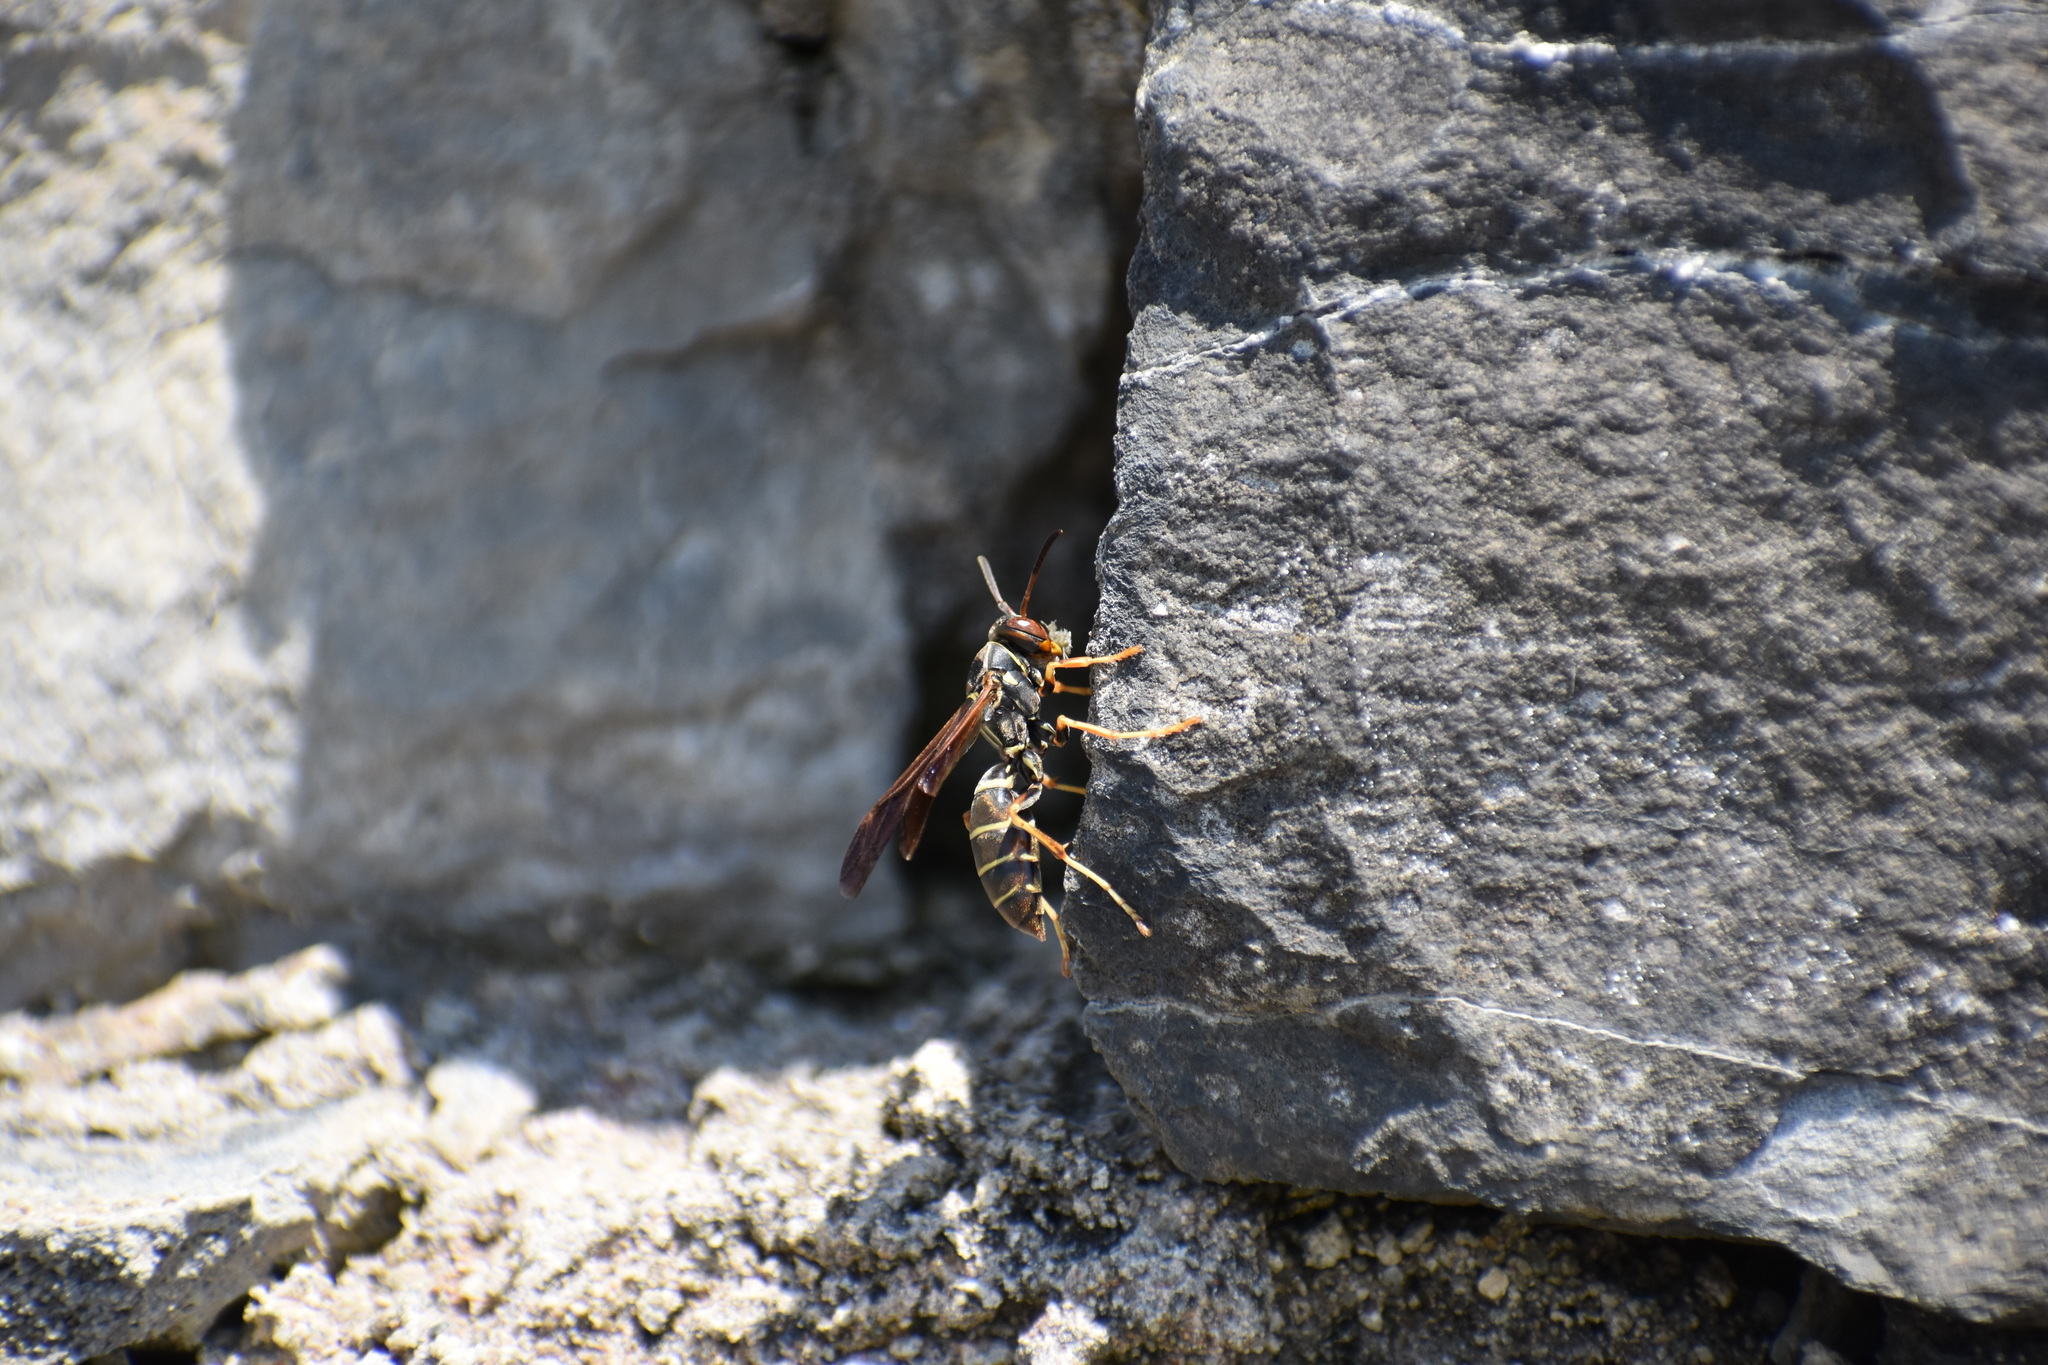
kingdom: Animalia
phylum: Arthropoda
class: Insecta
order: Hymenoptera
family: Eumenidae
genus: Polistes
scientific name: Polistes fuscatus
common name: Dark paper wasp
